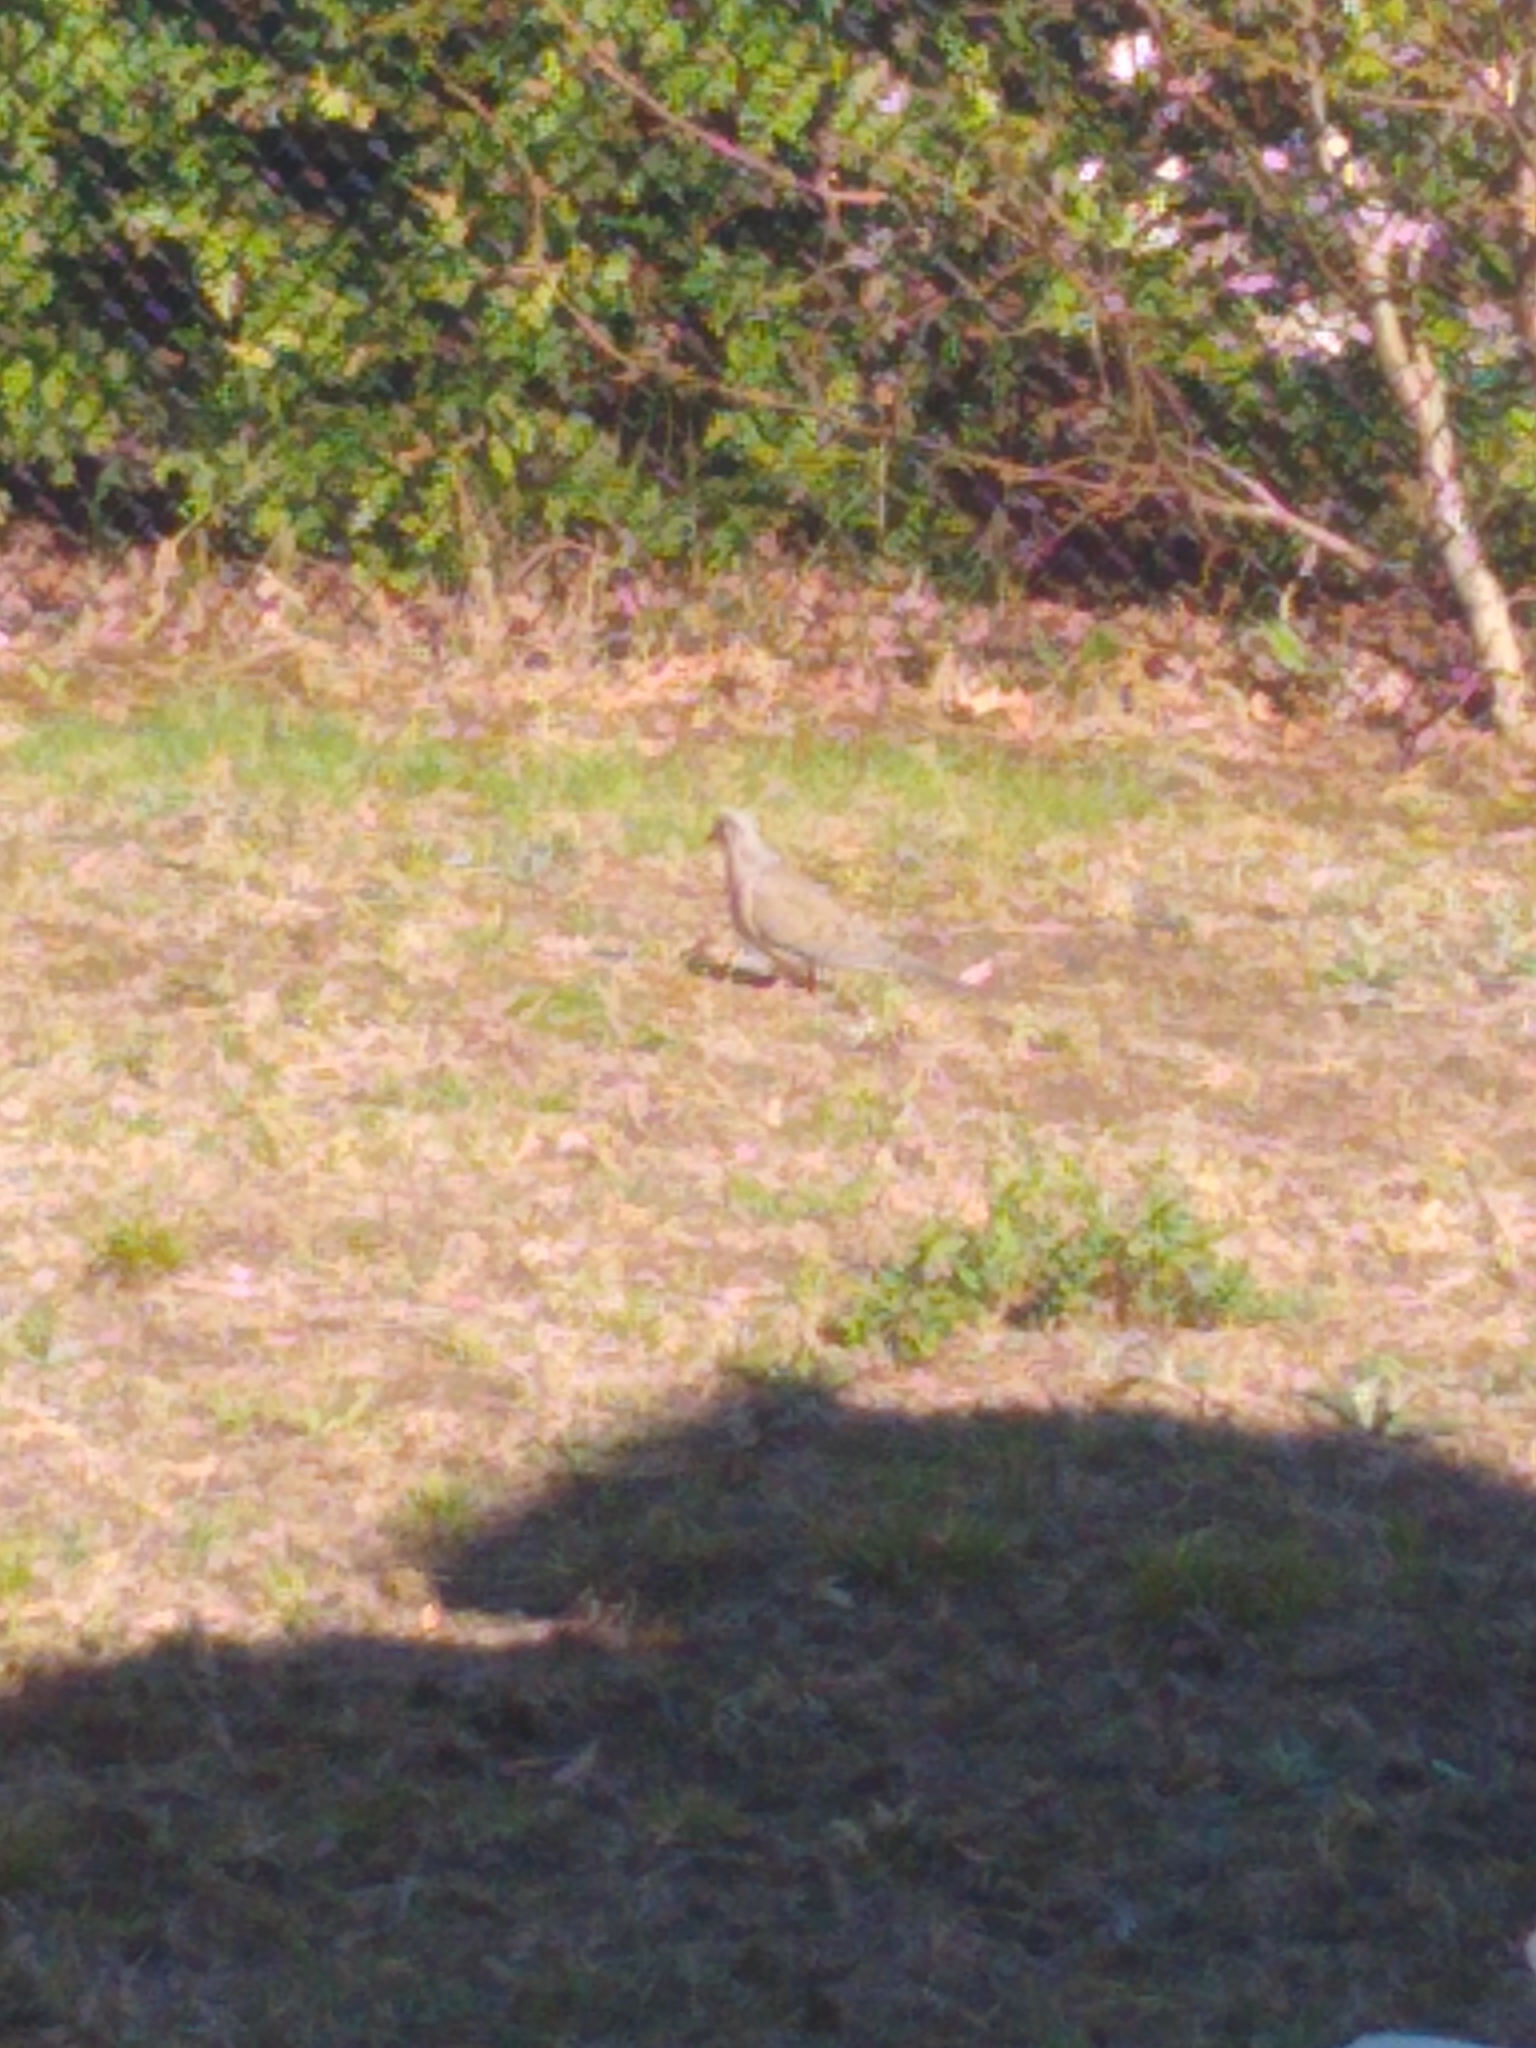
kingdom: Animalia
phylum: Chordata
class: Aves
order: Columbiformes
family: Columbidae
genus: Zenaida
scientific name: Zenaida macroura
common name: Mourning dove
